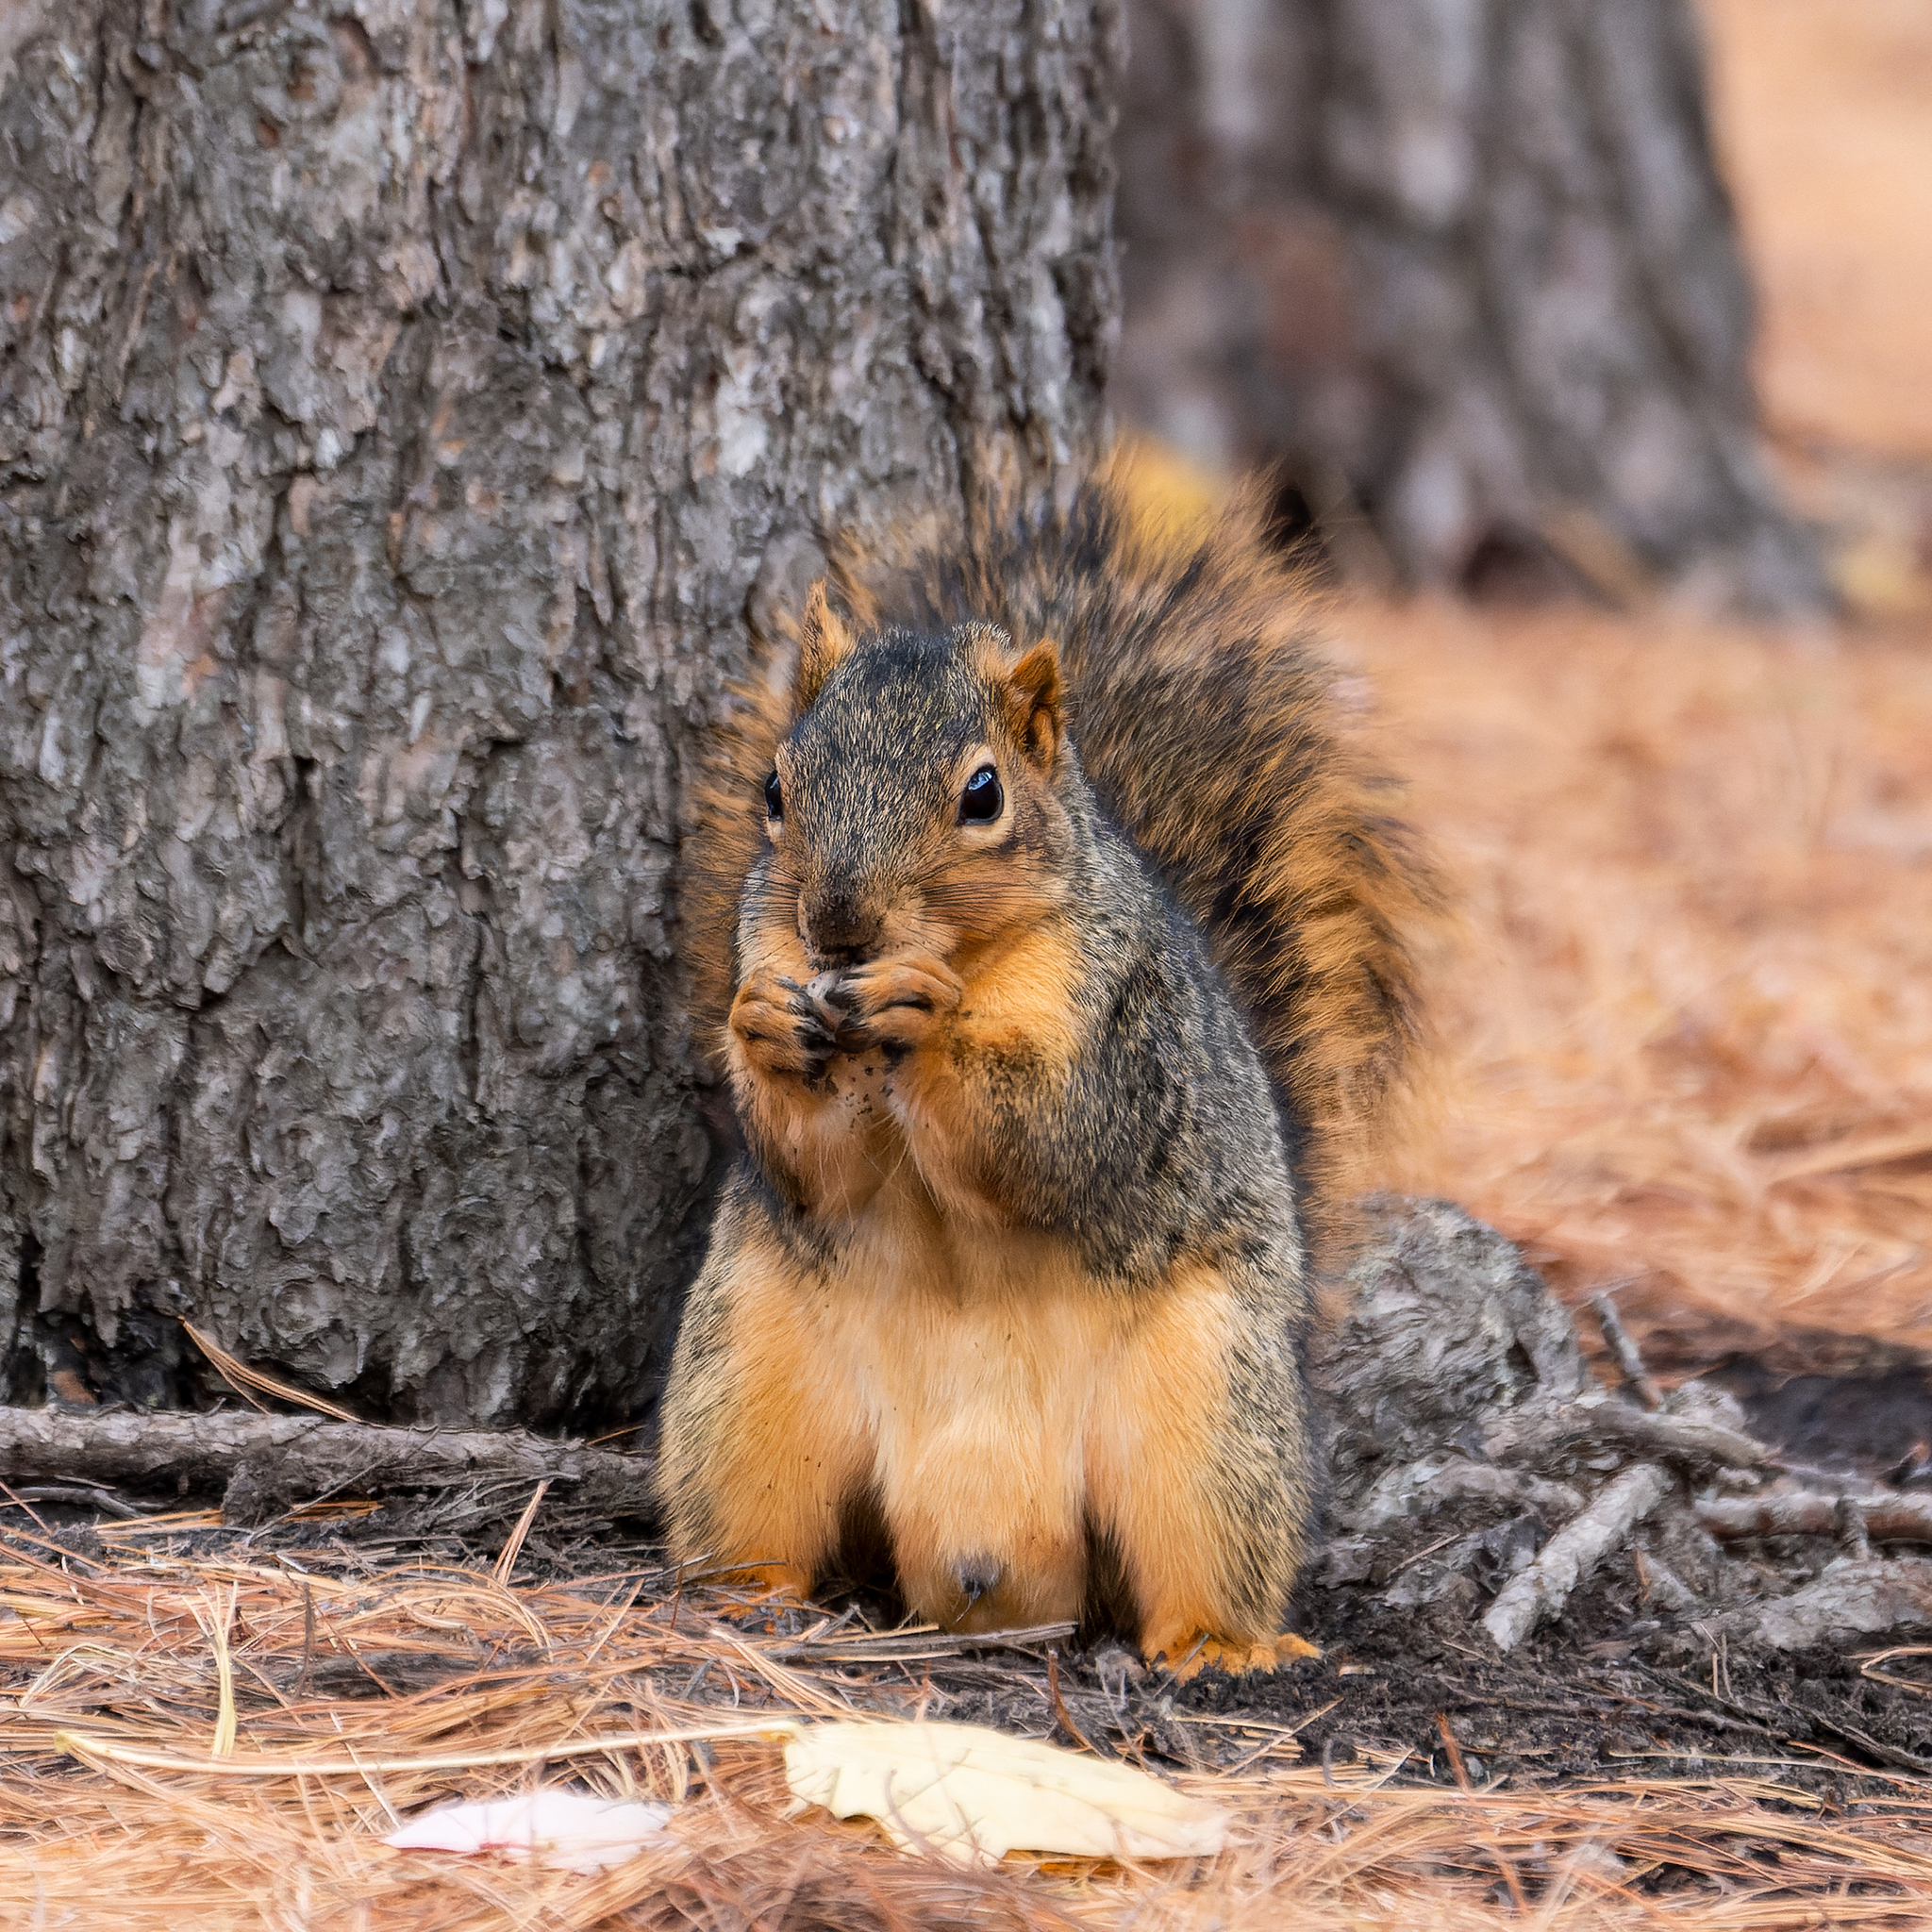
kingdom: Animalia
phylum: Chordata
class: Mammalia
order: Rodentia
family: Sciuridae
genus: Sciurus
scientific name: Sciurus niger
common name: Fox squirrel
